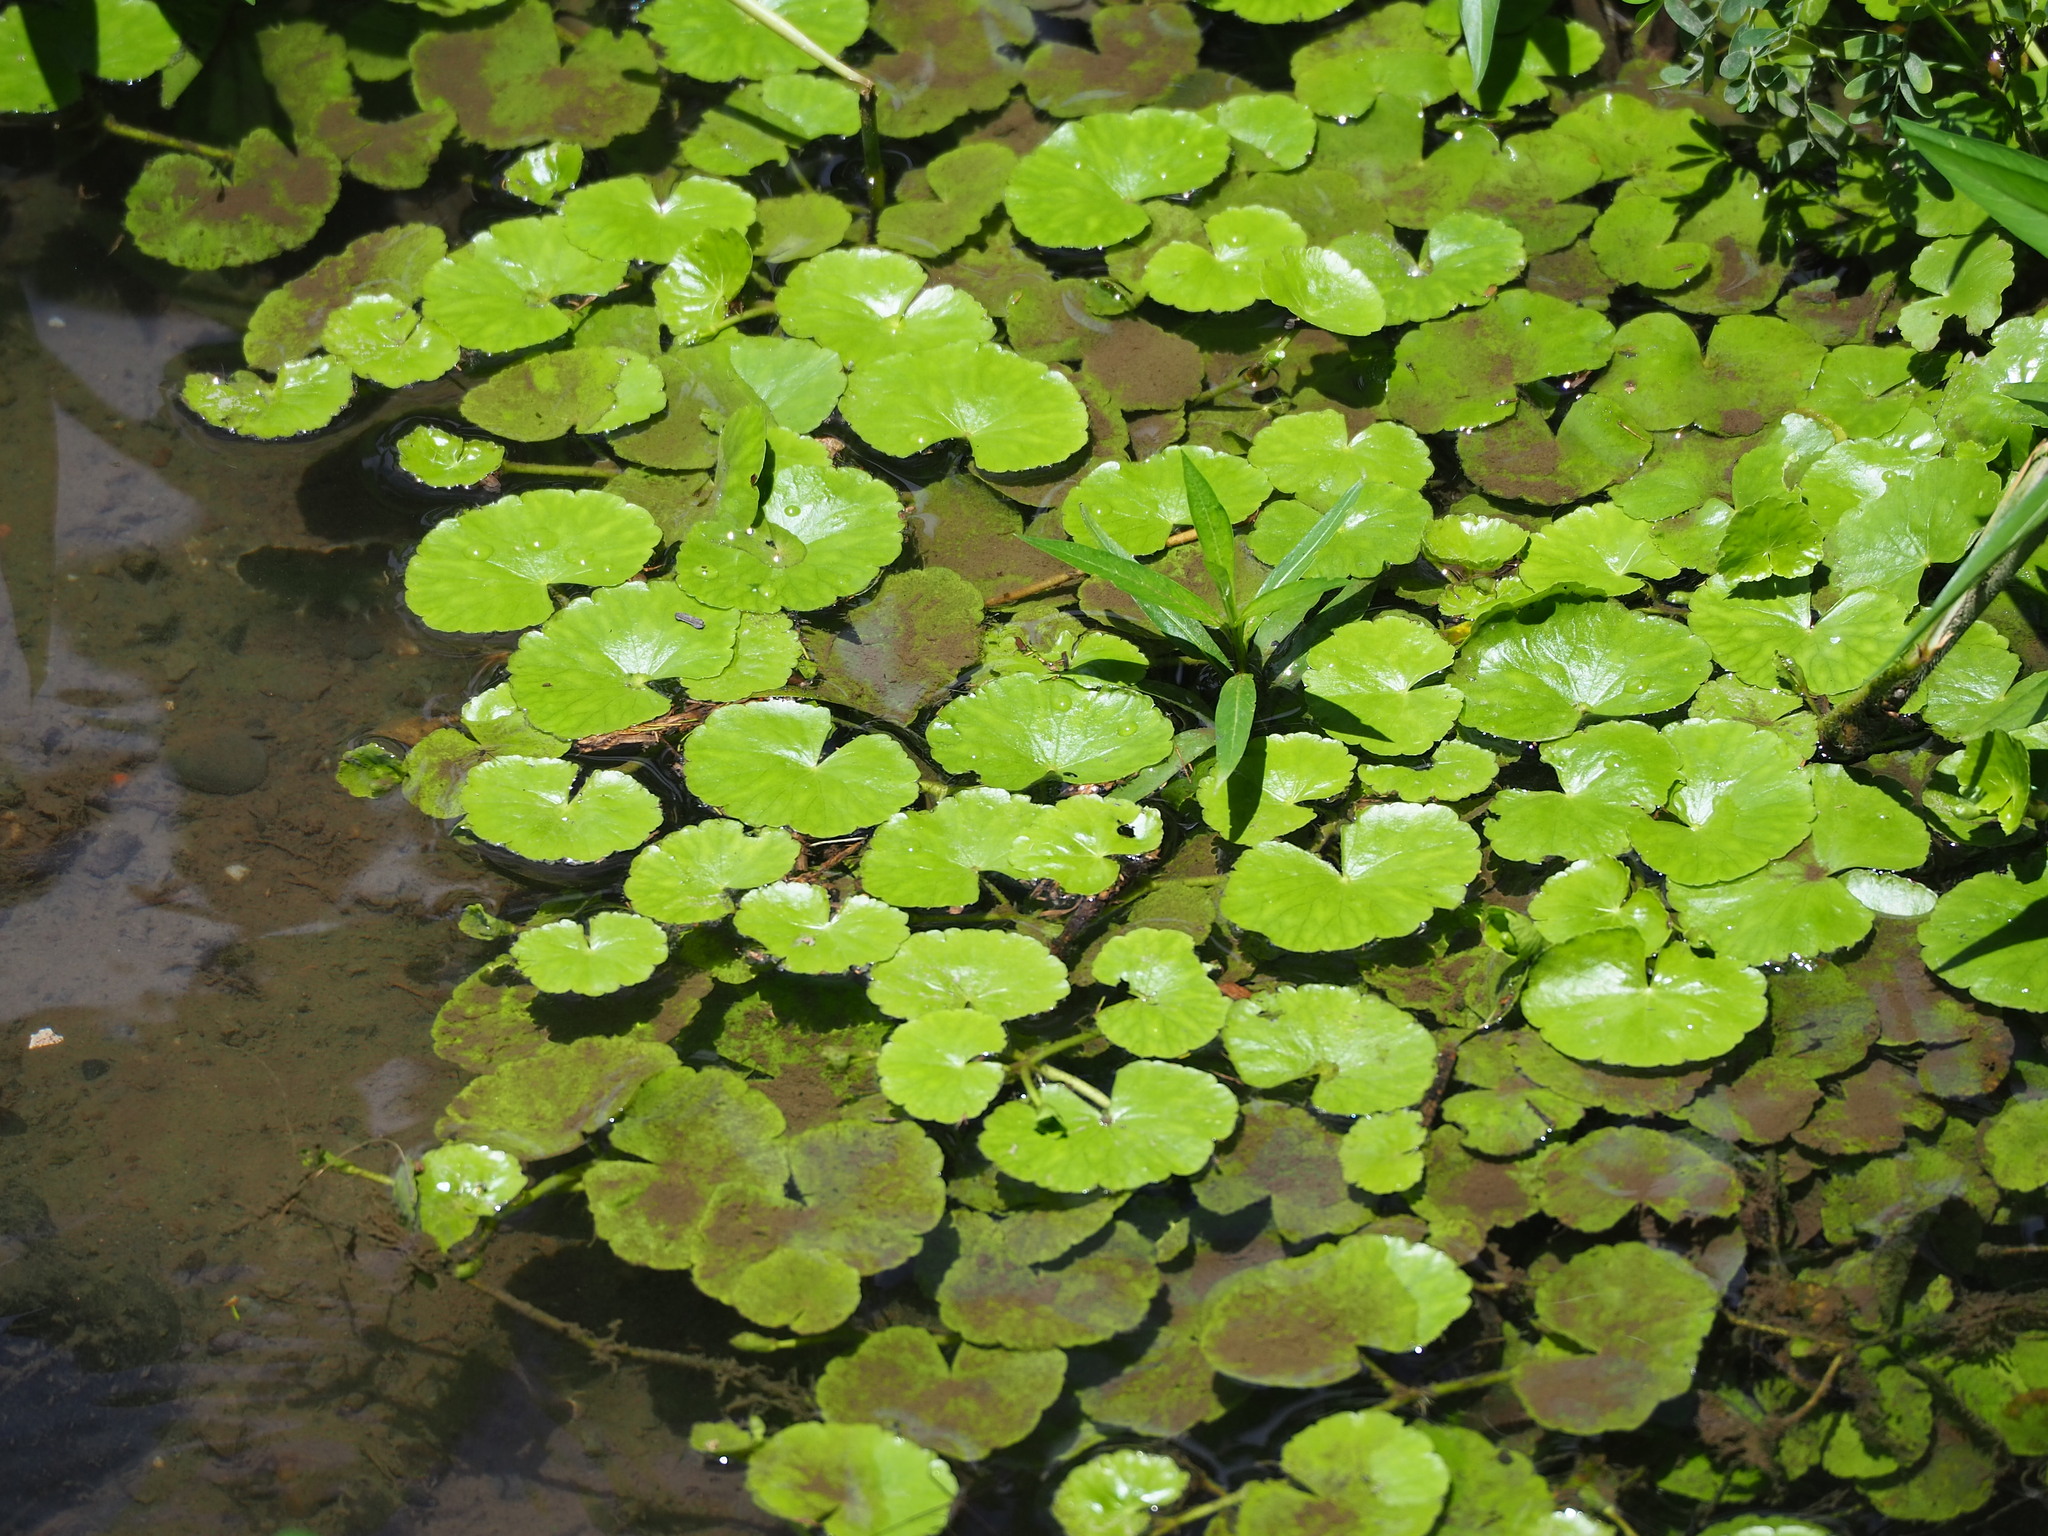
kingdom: Plantae
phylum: Tracheophyta
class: Magnoliopsida
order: Apiales
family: Araliaceae
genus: Hydrocotyle
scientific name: Hydrocotyle ranunculoides
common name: Floating pennywort
